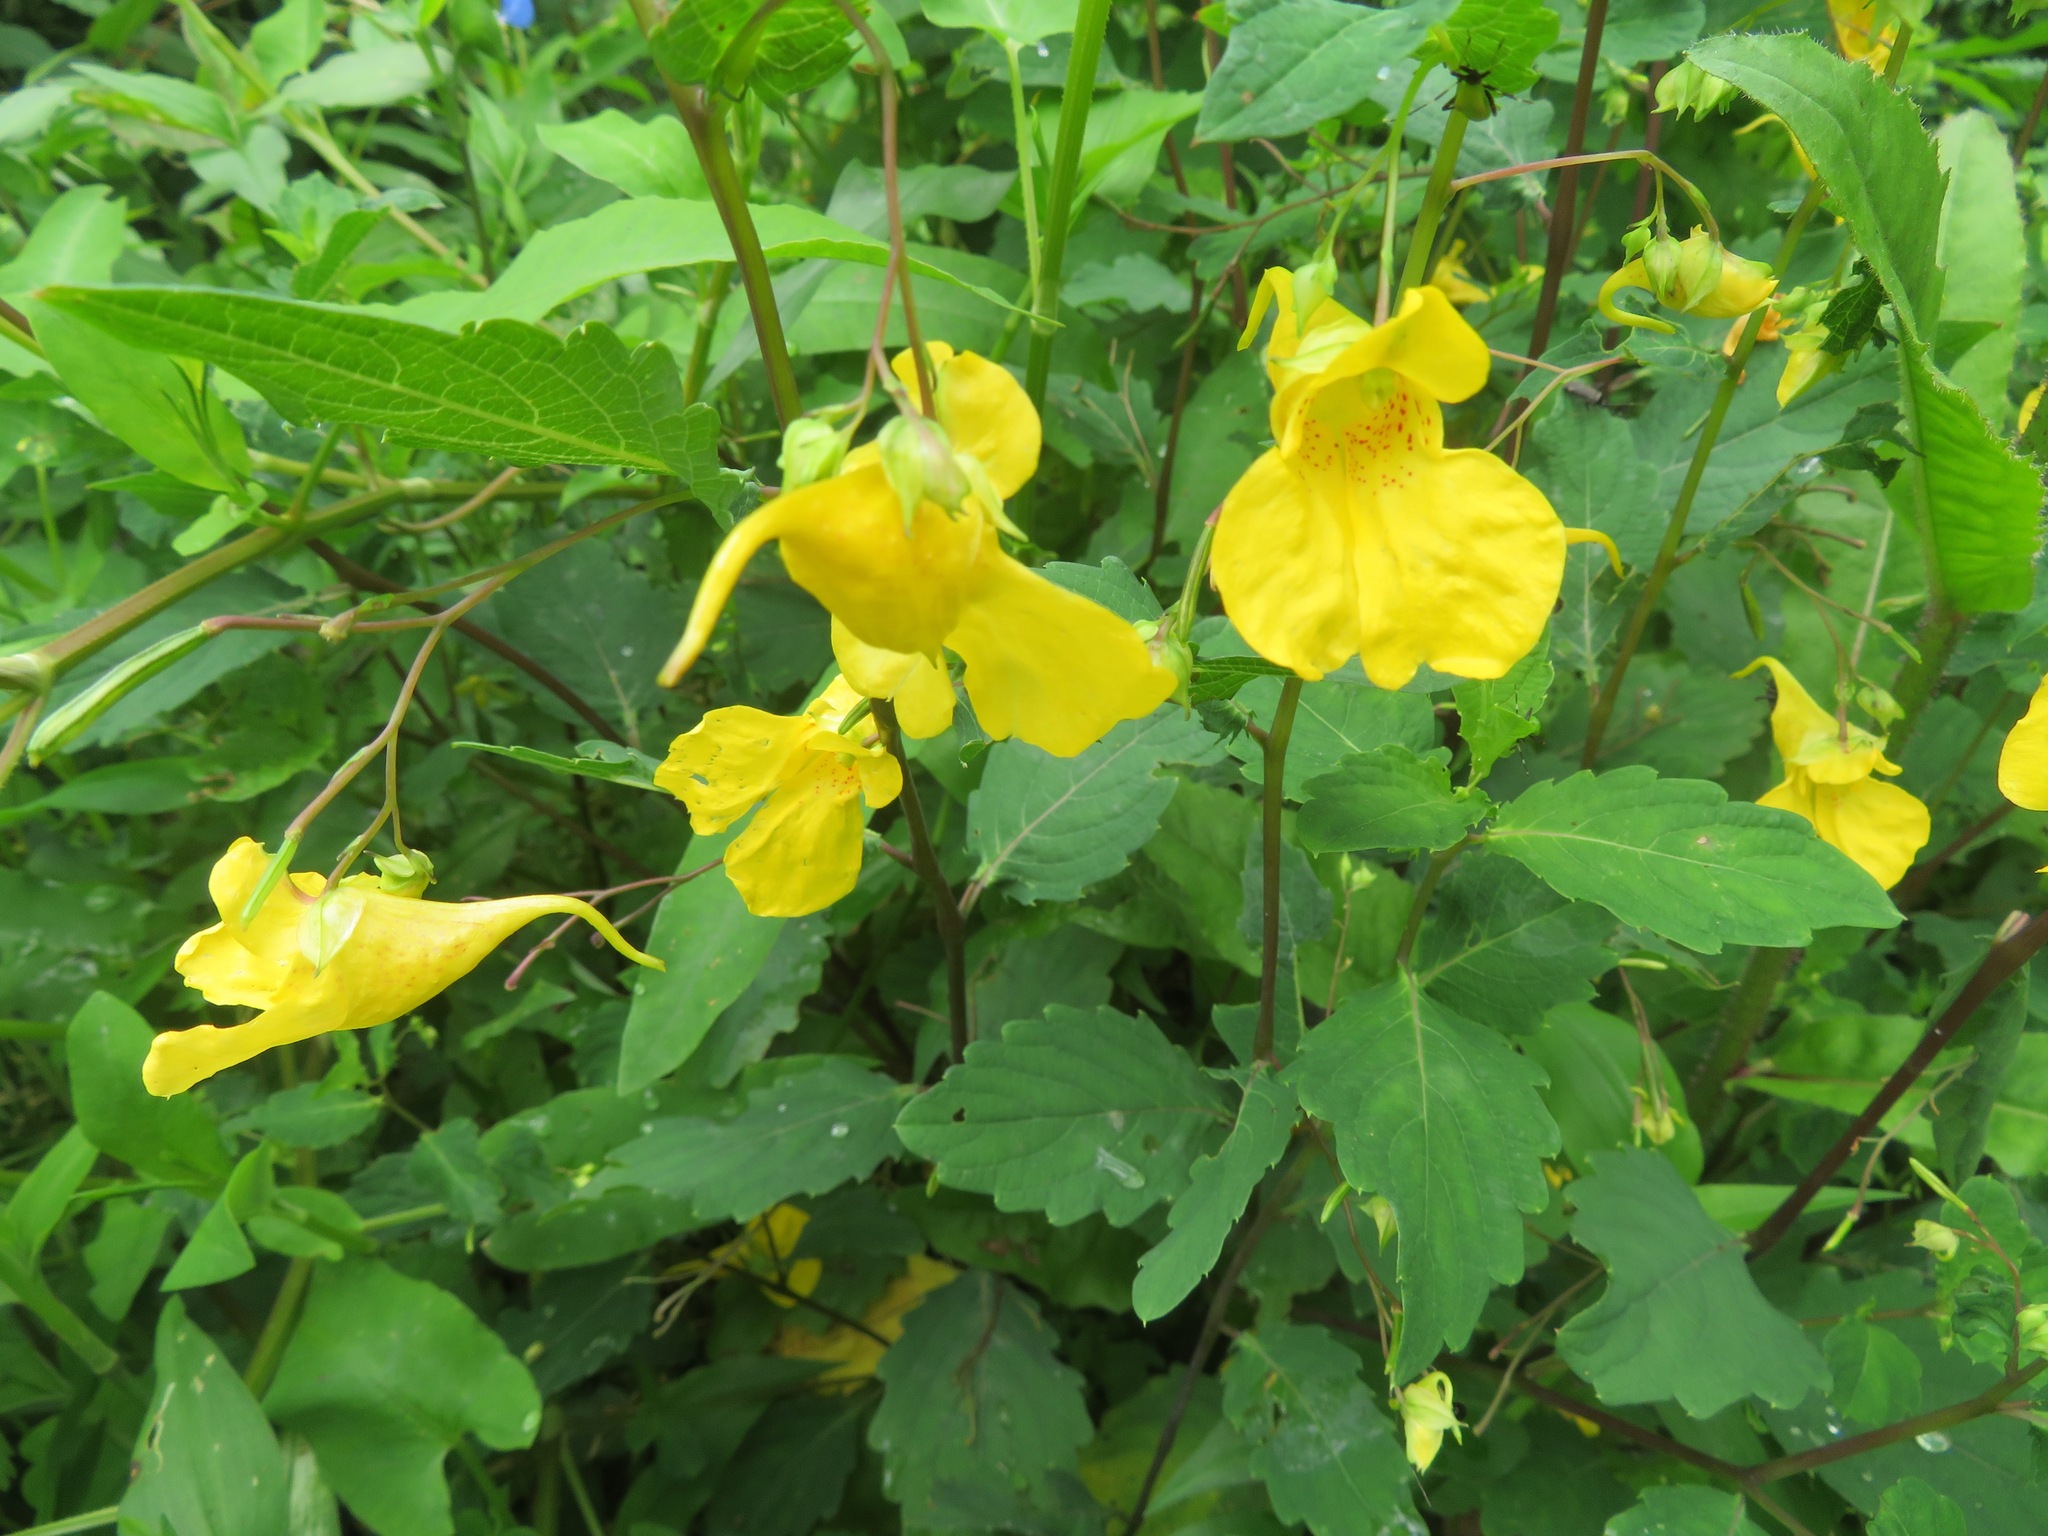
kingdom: Plantae
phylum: Tracheophyta
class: Magnoliopsida
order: Ericales
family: Balsaminaceae
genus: Impatiens
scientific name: Impatiens noli-tangere
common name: Touch-me-not balsam
